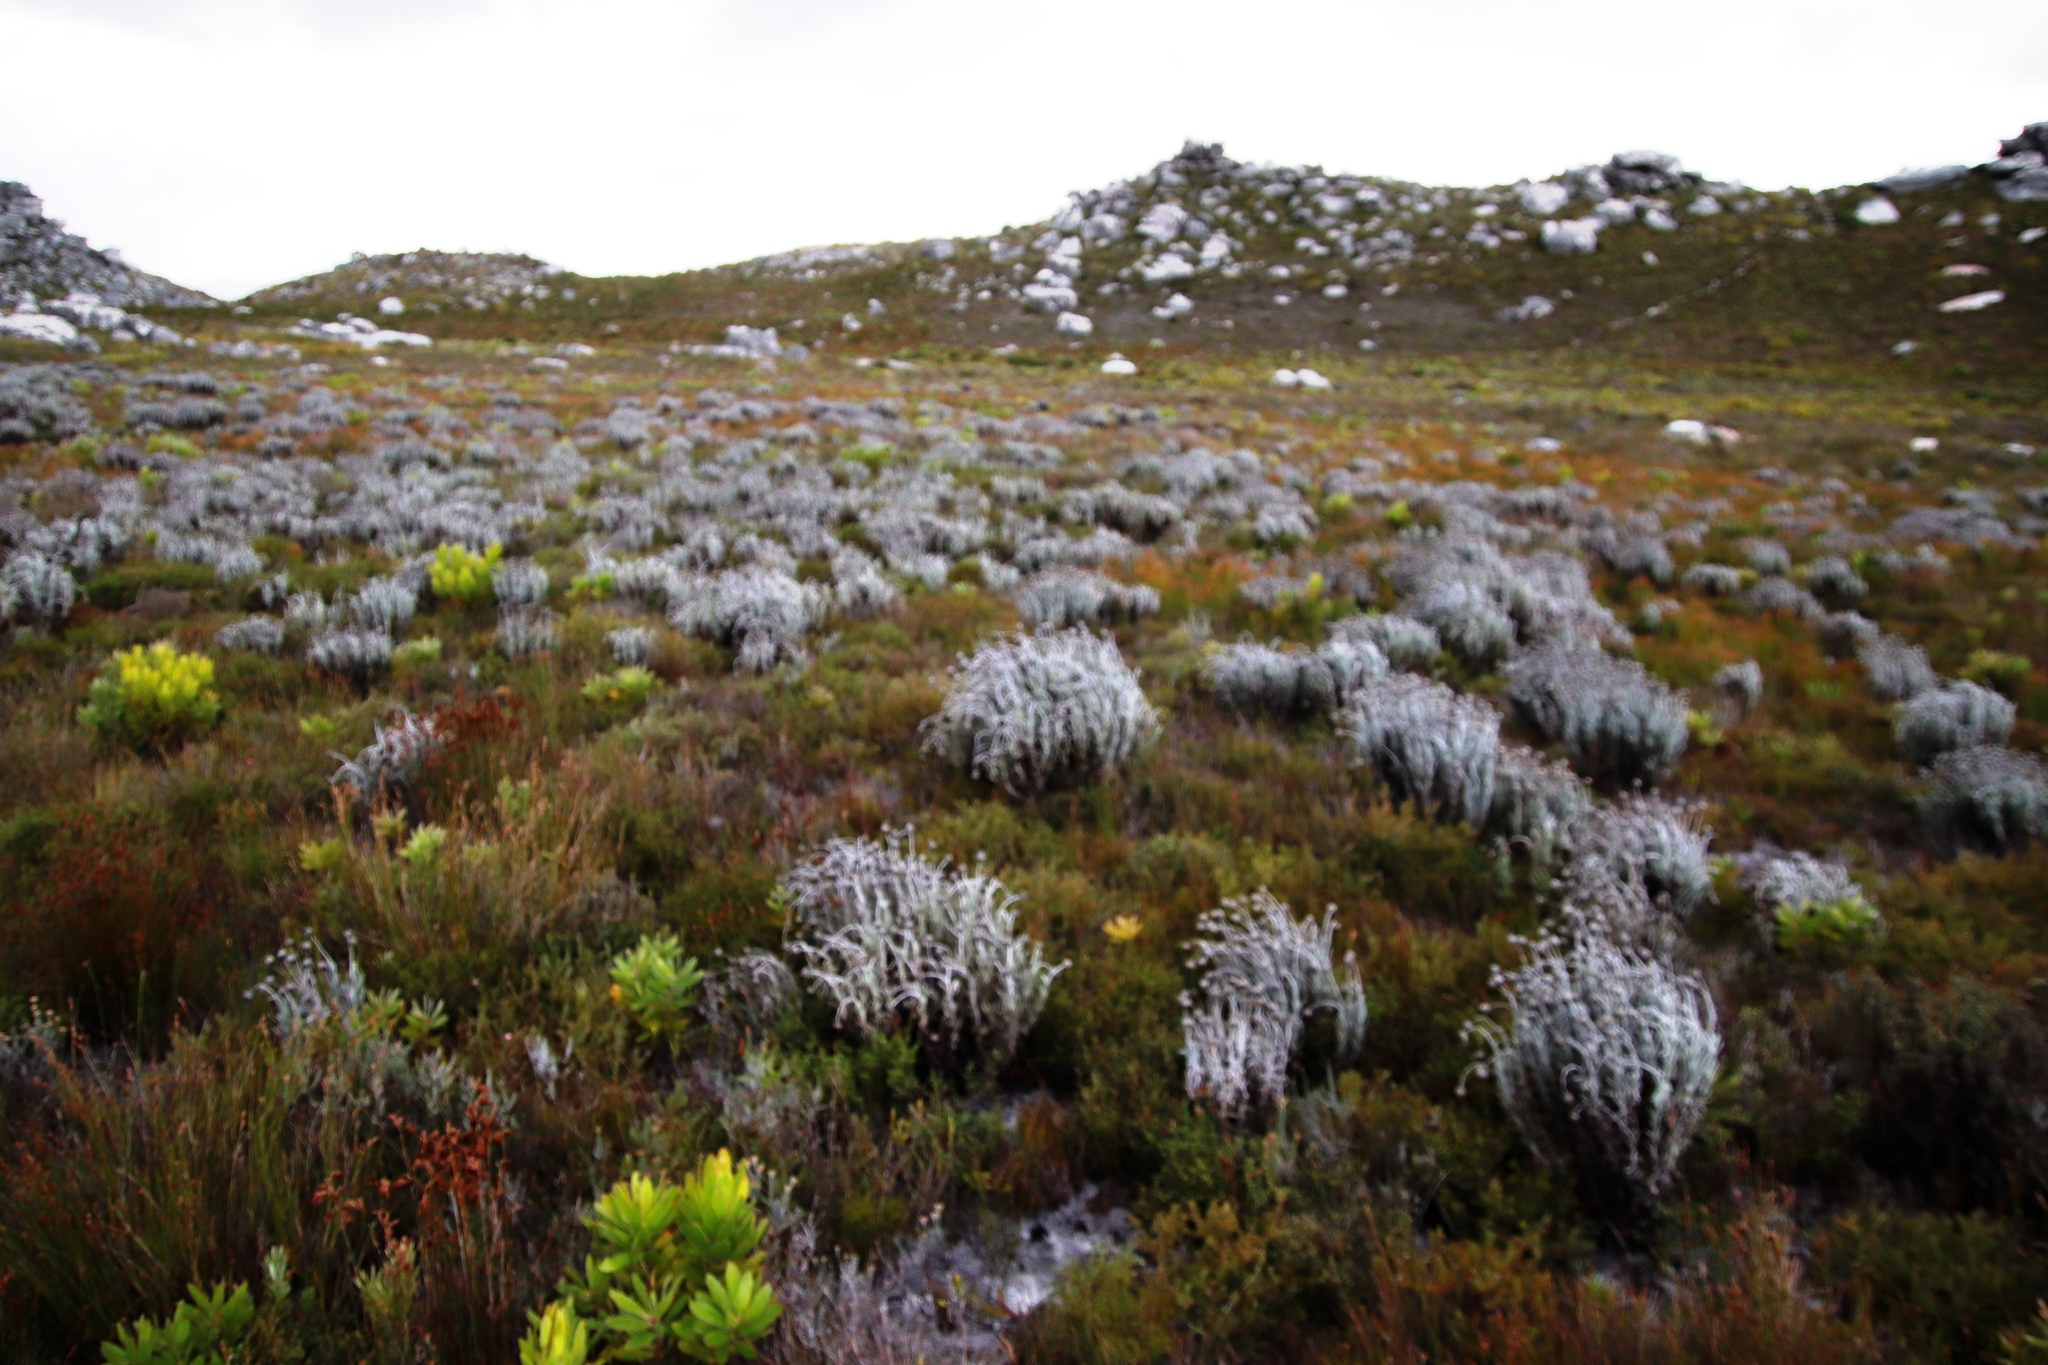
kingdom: Plantae
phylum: Tracheophyta
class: Magnoliopsida
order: Asterales
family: Asteraceae
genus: Syncarpha
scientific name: Syncarpha vestita
